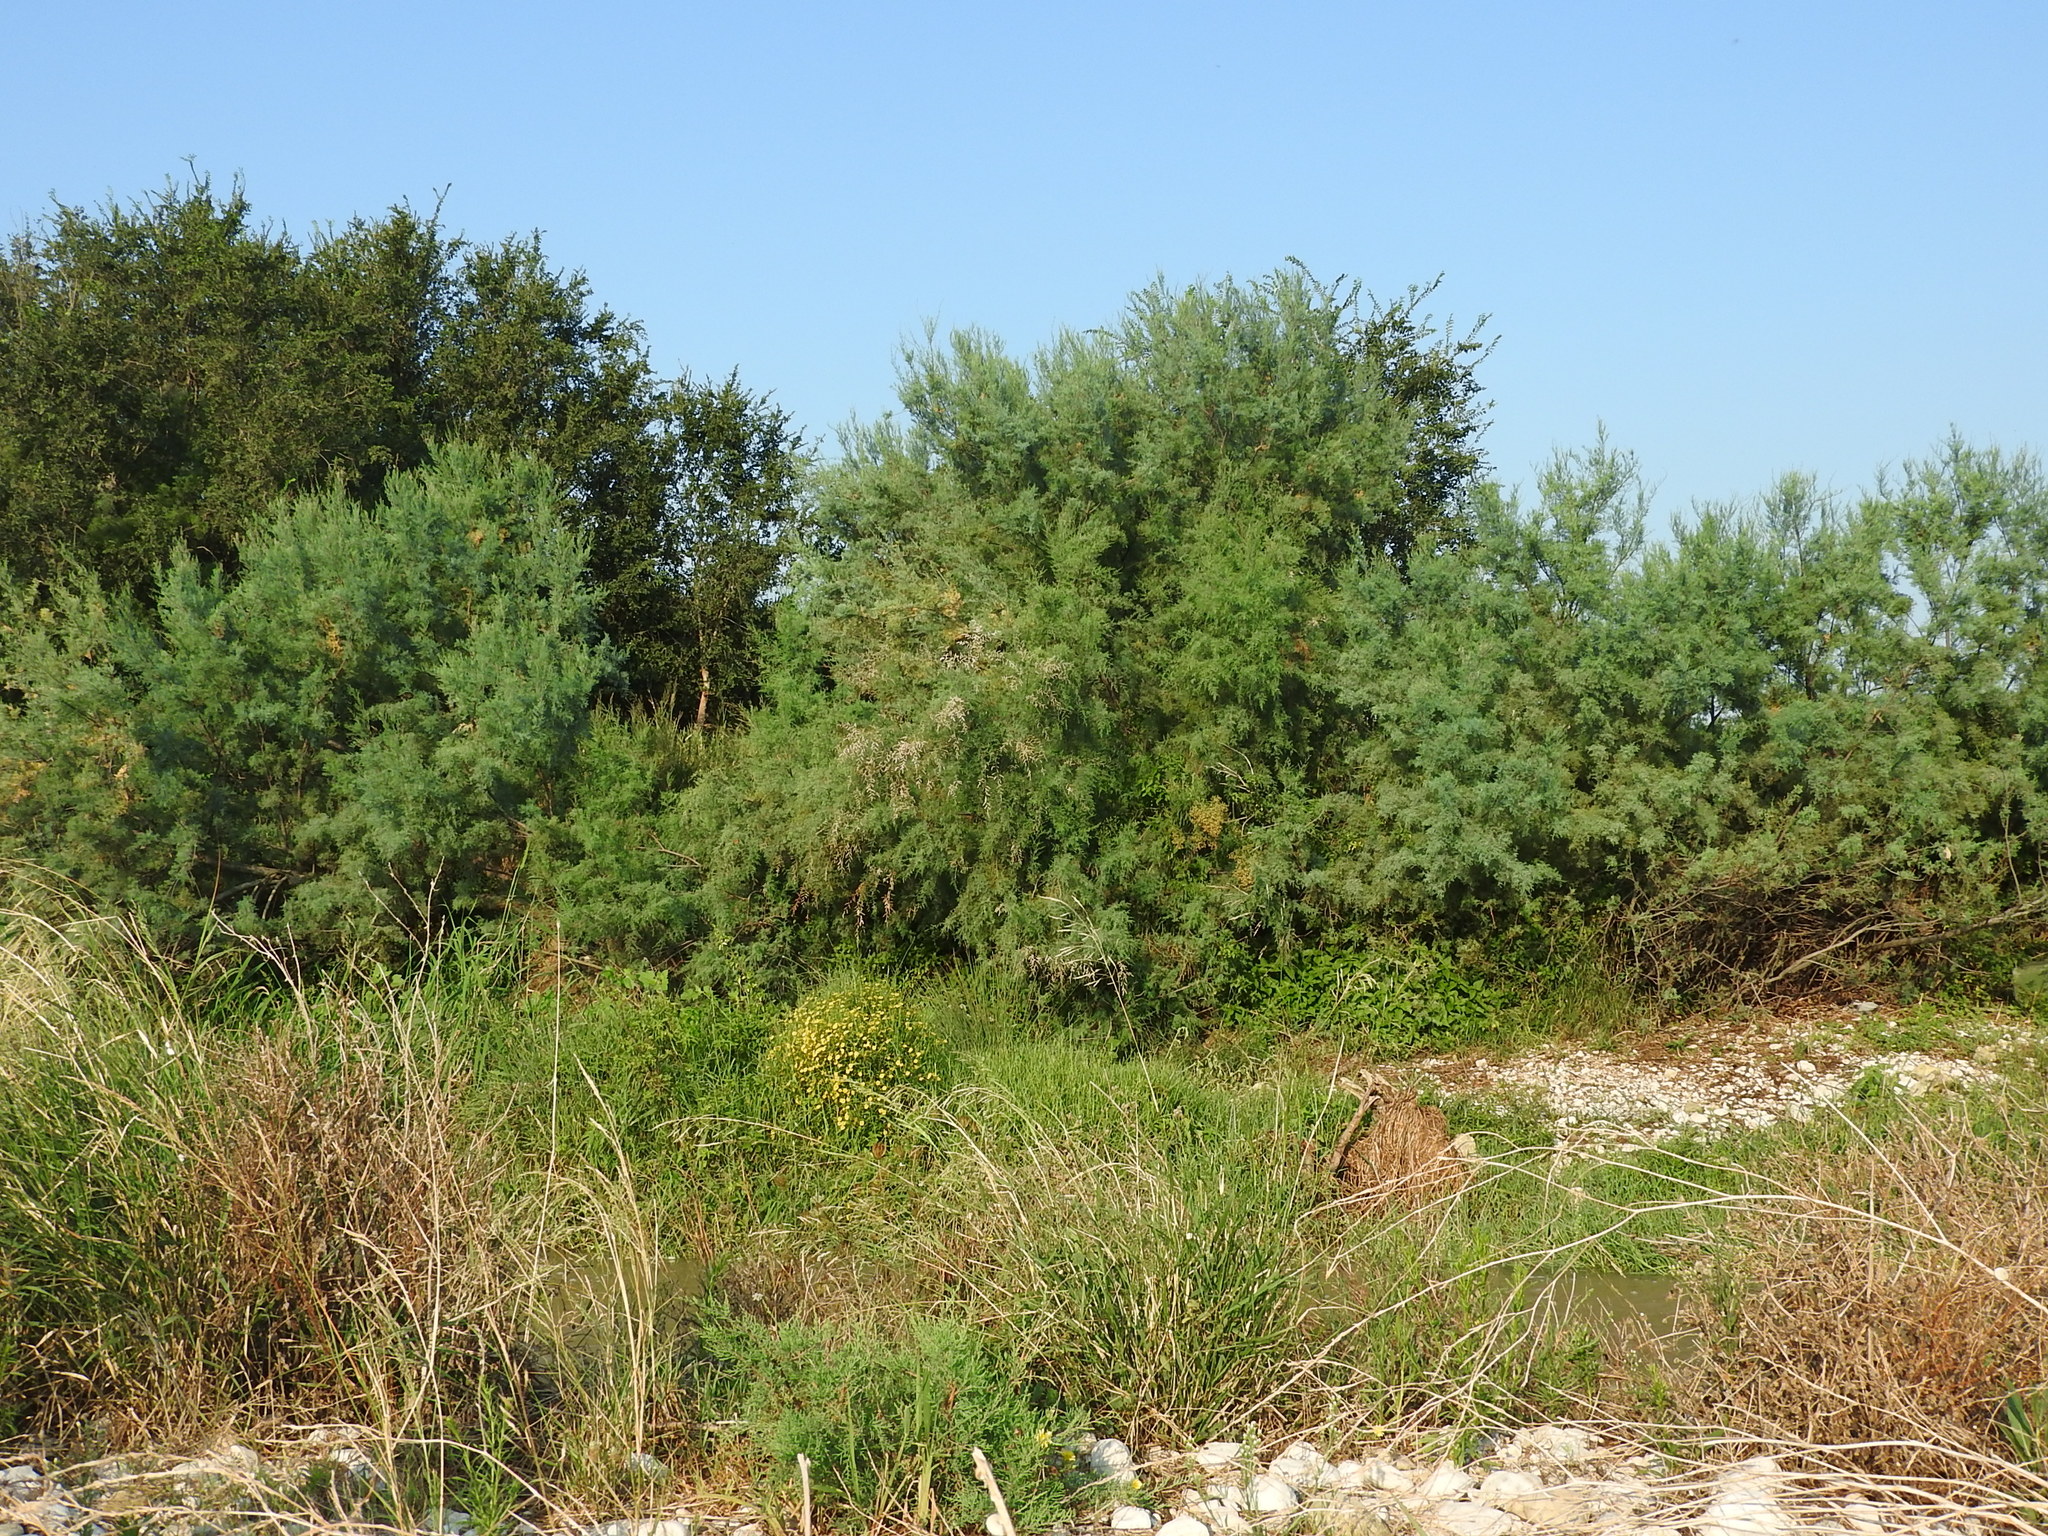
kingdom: Plantae
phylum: Tracheophyta
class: Magnoliopsida
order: Caryophyllales
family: Tamaricaceae
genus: Tamarix
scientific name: Tamarix gallica
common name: Tamarisk
